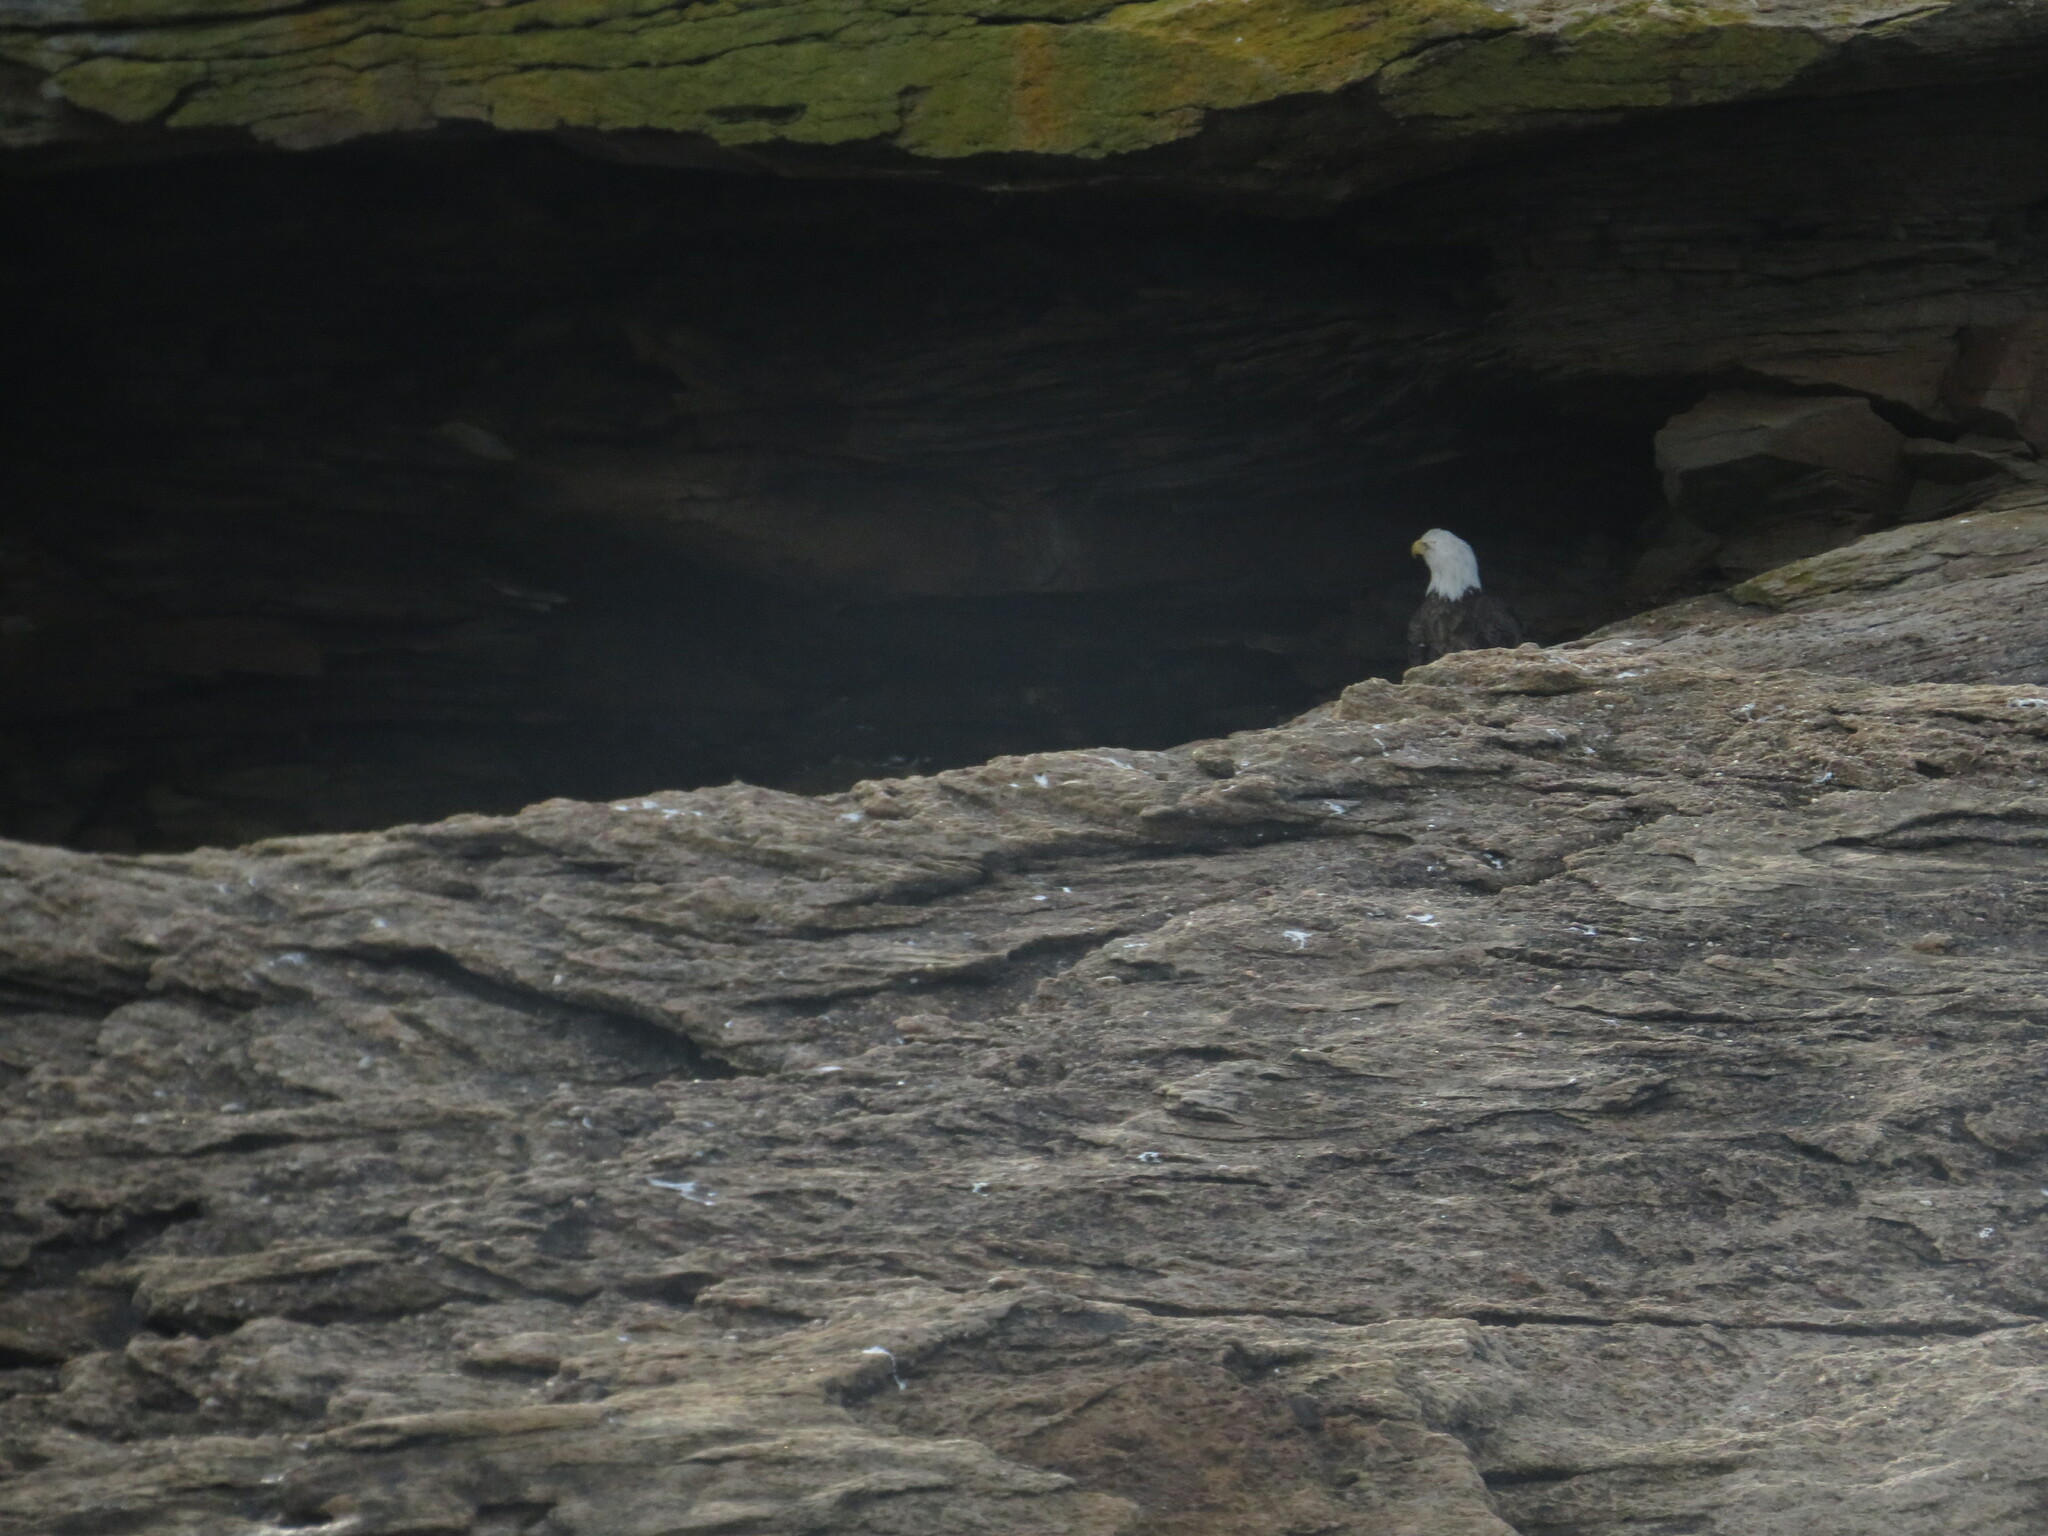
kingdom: Animalia
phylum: Chordata
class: Aves
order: Accipitriformes
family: Accipitridae
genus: Haliaeetus
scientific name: Haliaeetus leucocephalus
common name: Bald eagle
